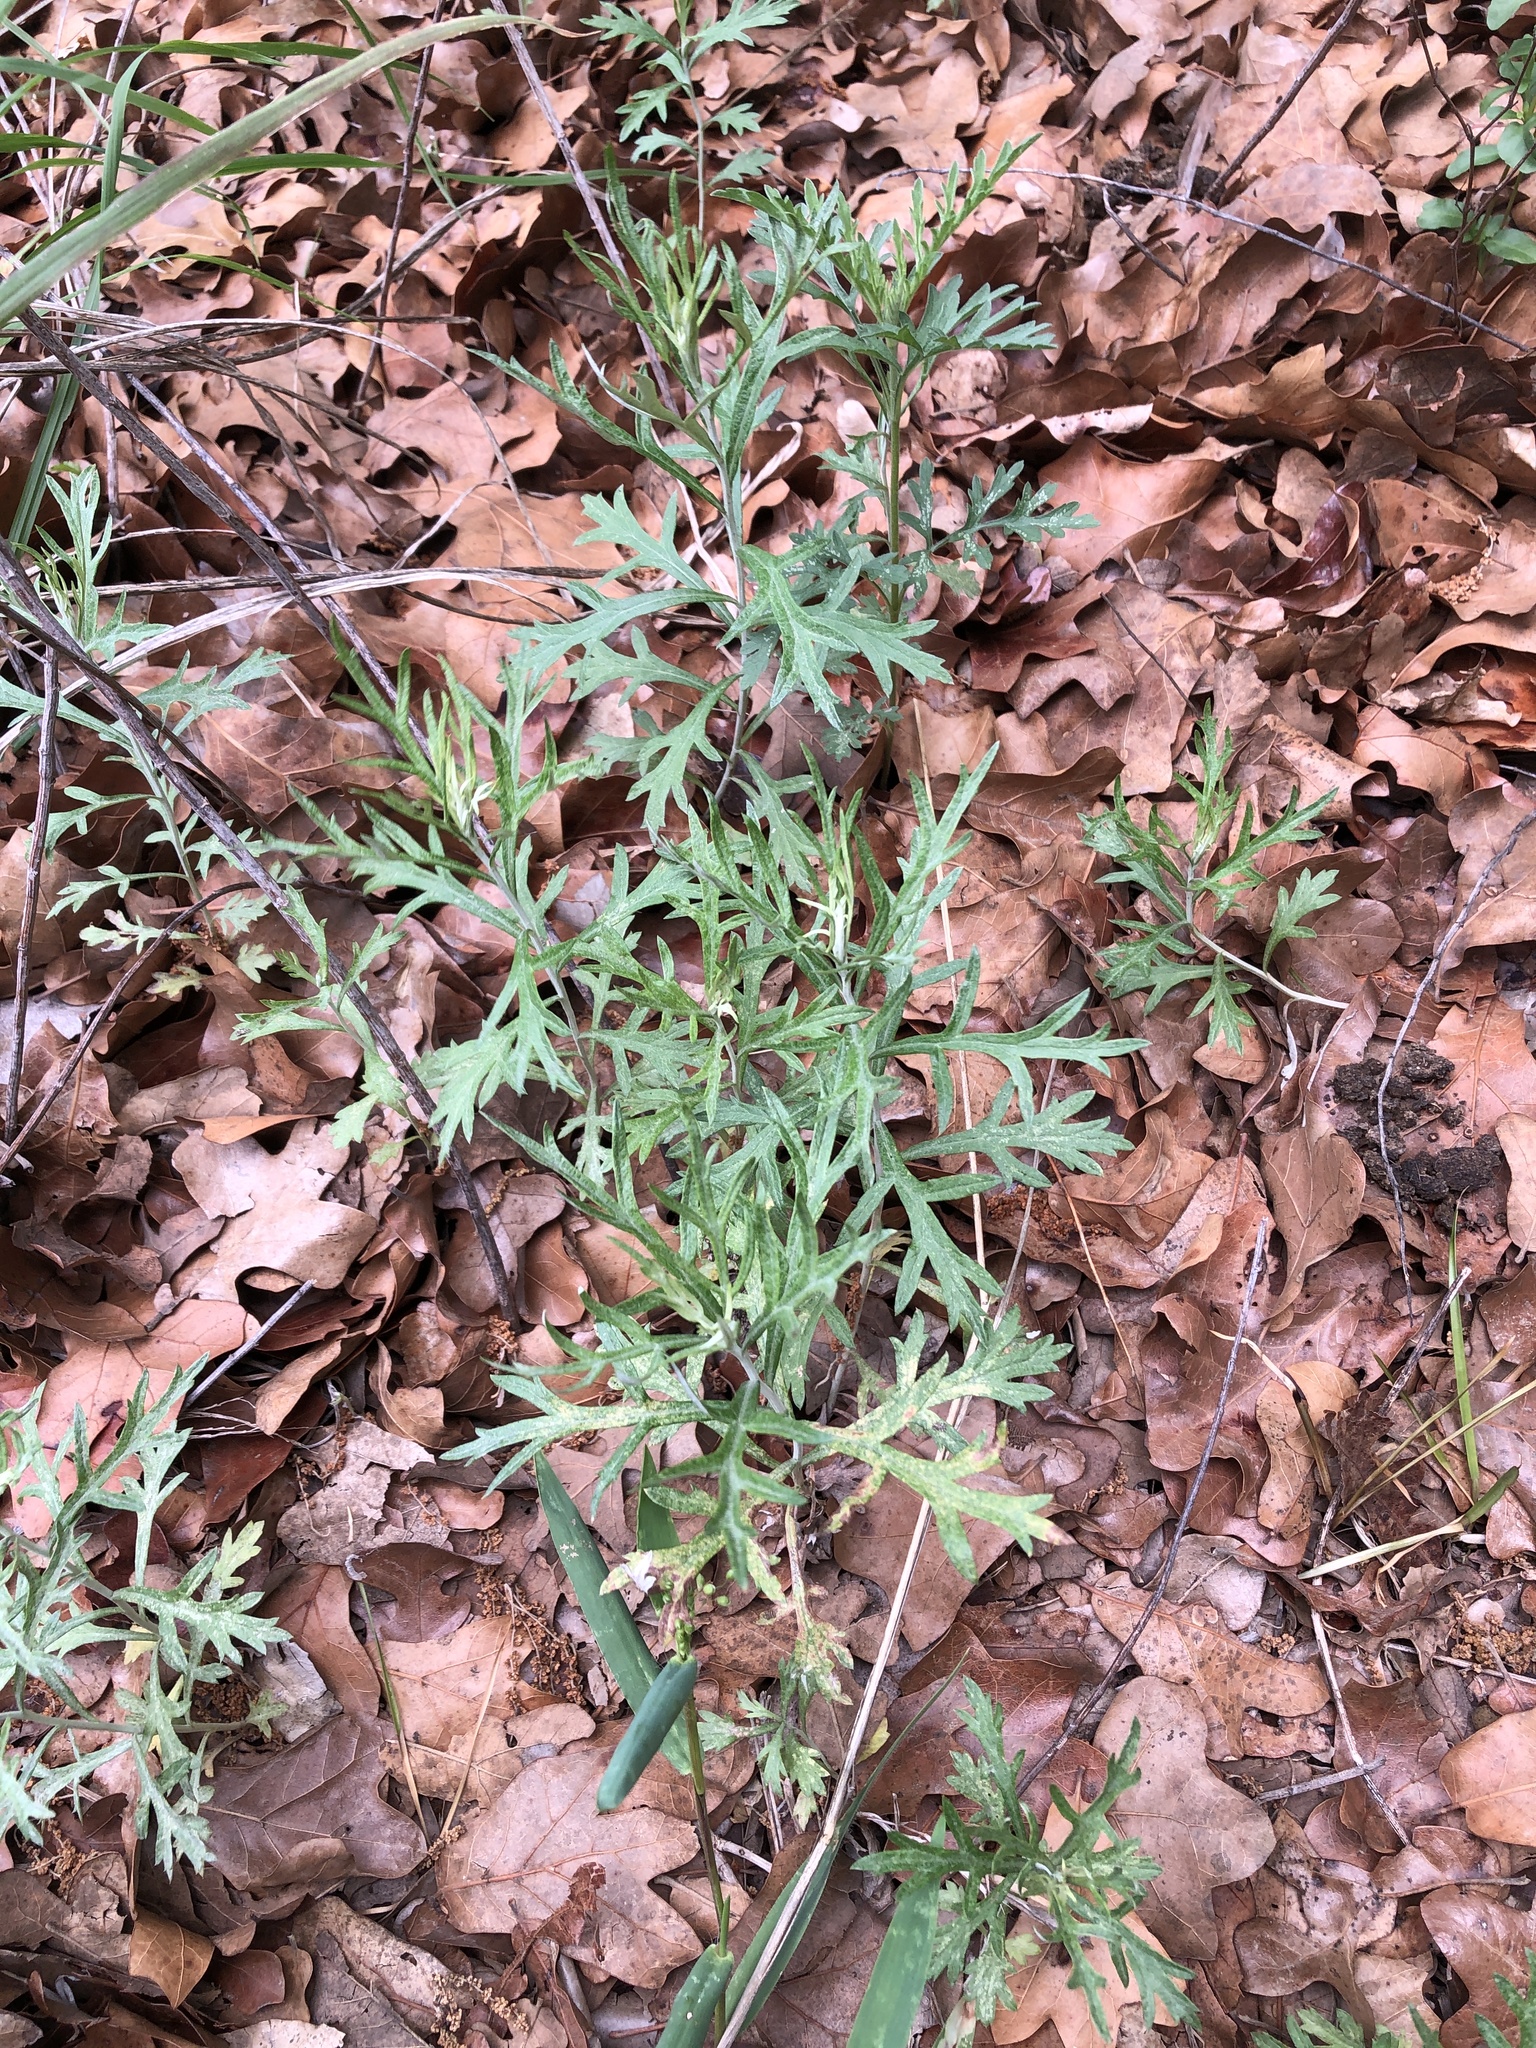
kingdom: Plantae
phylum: Tracheophyta
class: Magnoliopsida
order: Asterales
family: Asteraceae
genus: Artemisia
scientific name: Artemisia ludoviciana
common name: Western mugwort
